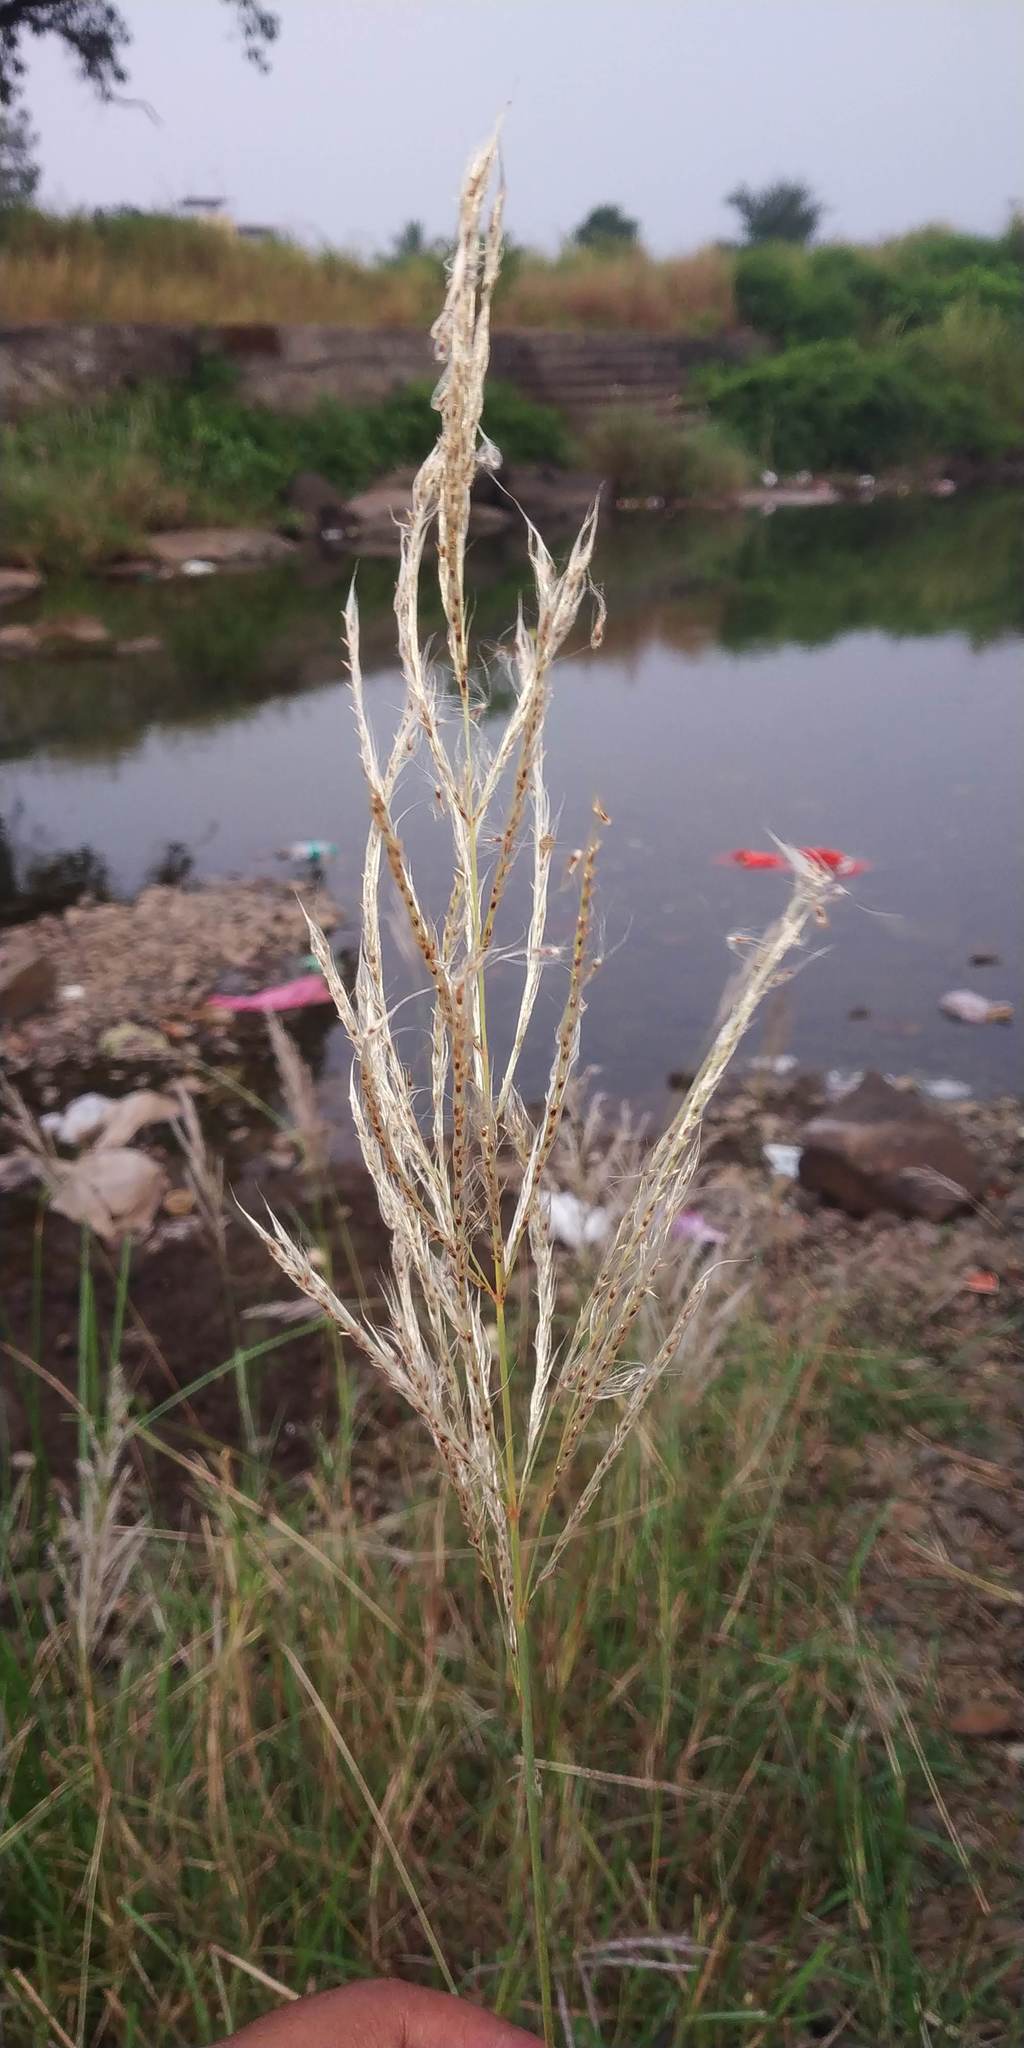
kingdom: Plantae
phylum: Tracheophyta
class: Liliopsida
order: Poales
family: Poaceae
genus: Saccharum
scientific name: Saccharum spontaneum
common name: Wild sugarcane
